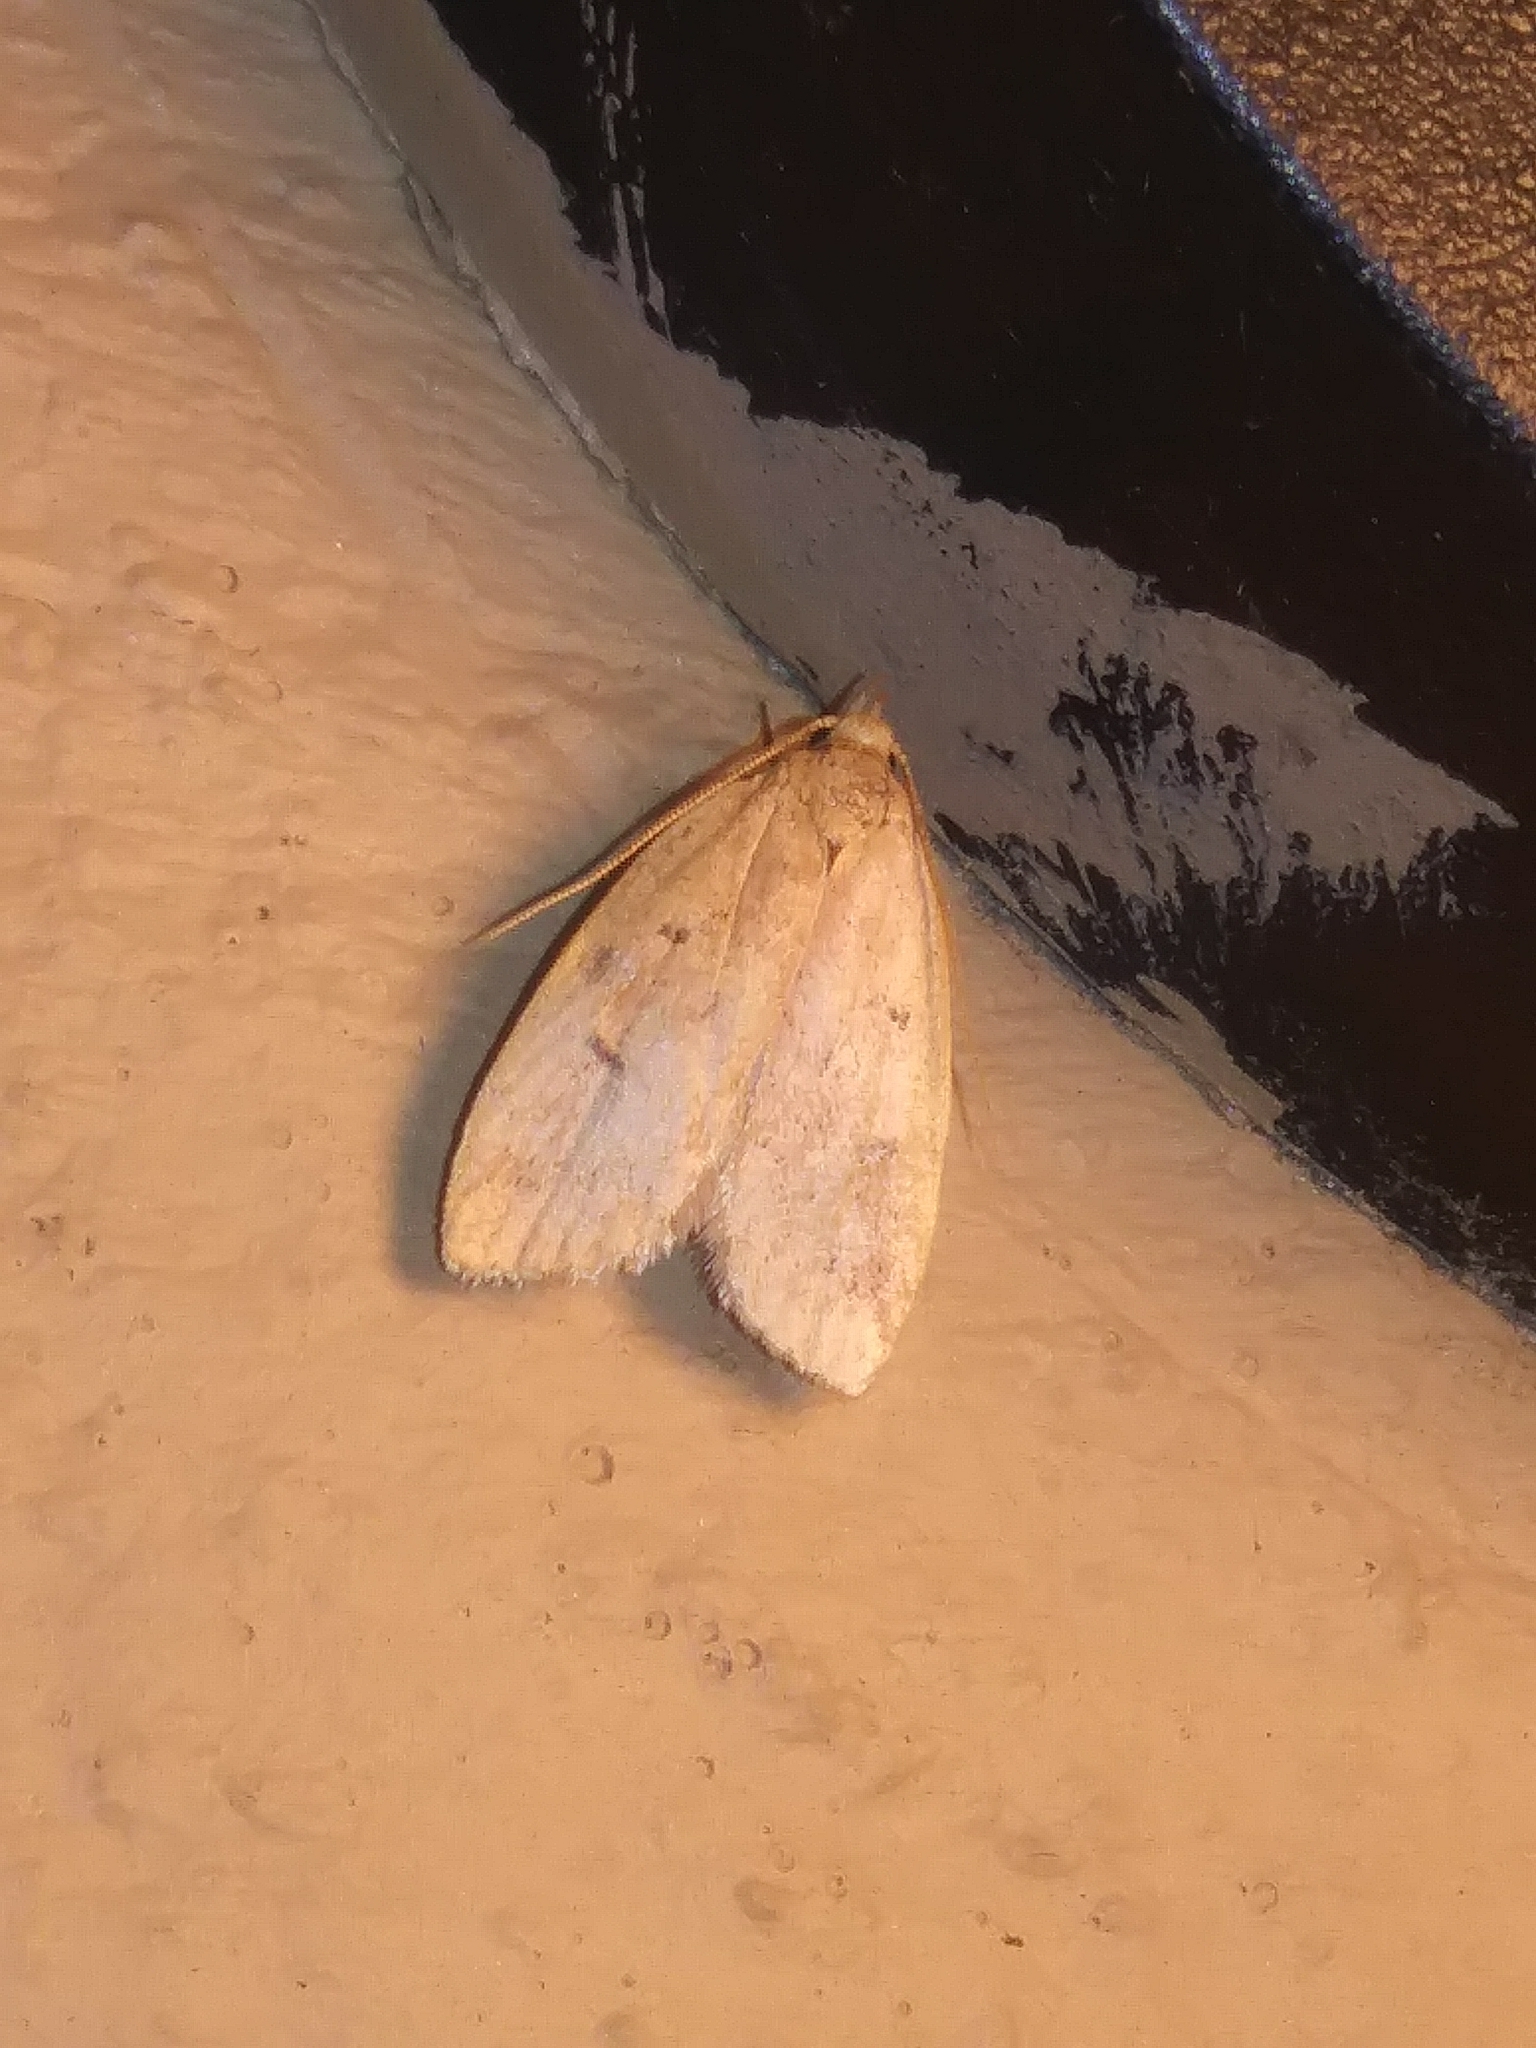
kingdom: Animalia
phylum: Arthropoda
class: Insecta
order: Lepidoptera
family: Peleopodidae
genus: Machimia
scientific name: Machimia tentoriferella
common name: Gold-striped leaftier moth
